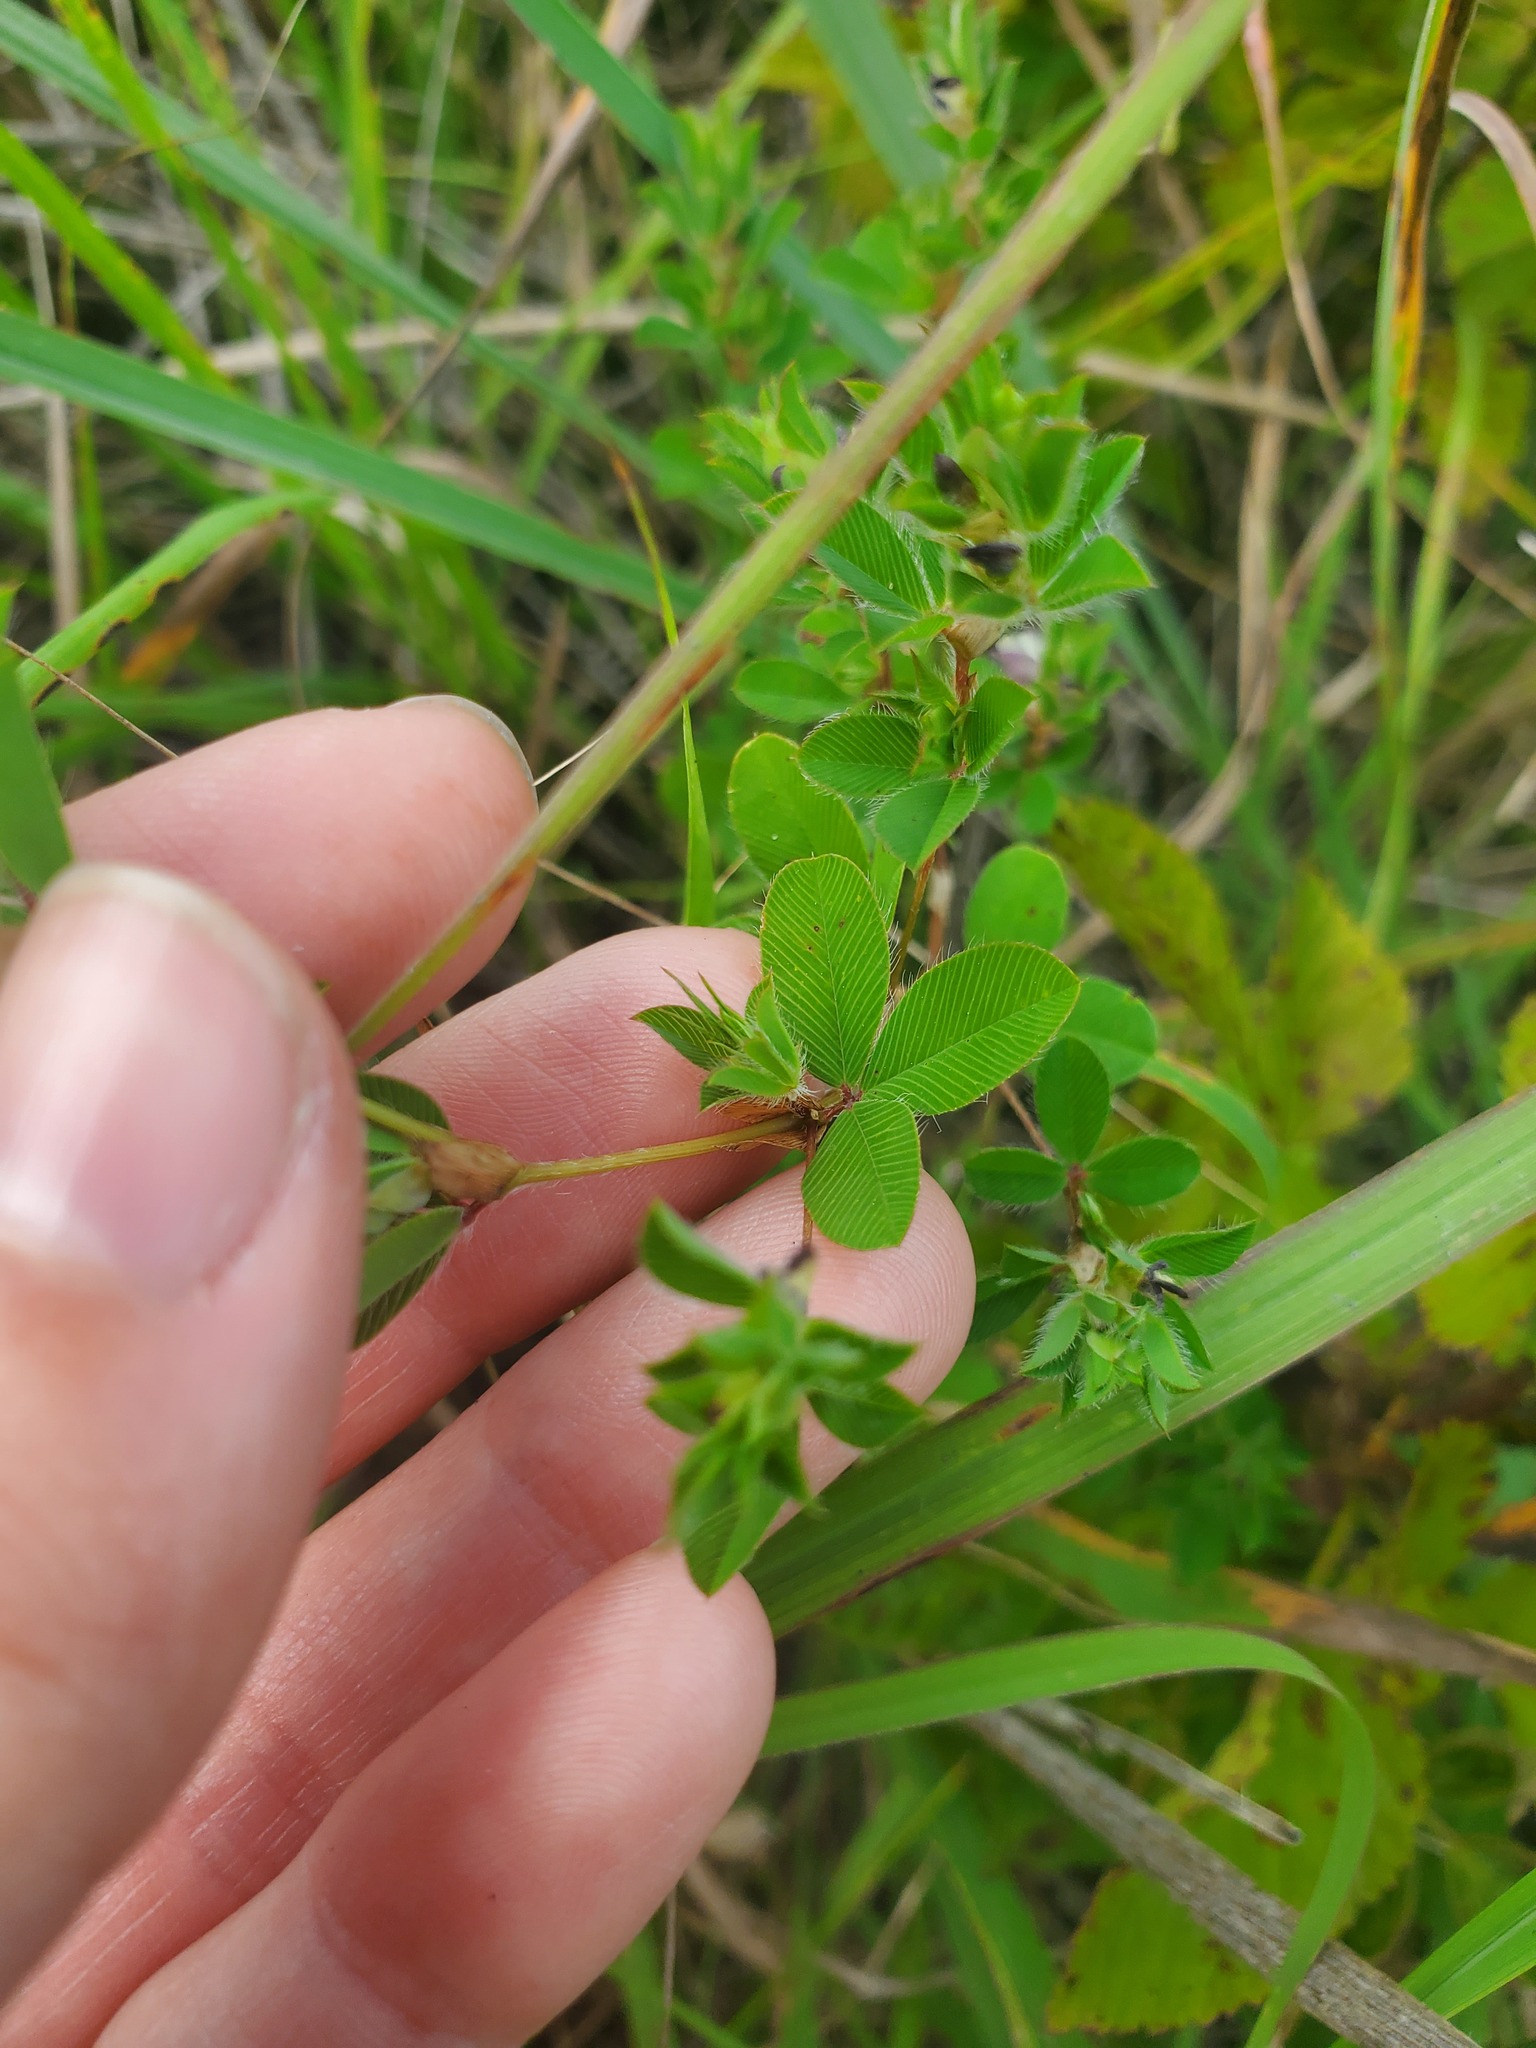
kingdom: Plantae
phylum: Tracheophyta
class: Magnoliopsida
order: Fabales
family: Fabaceae
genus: Kummerowia
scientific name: Kummerowia stipulacea
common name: Korean clover
